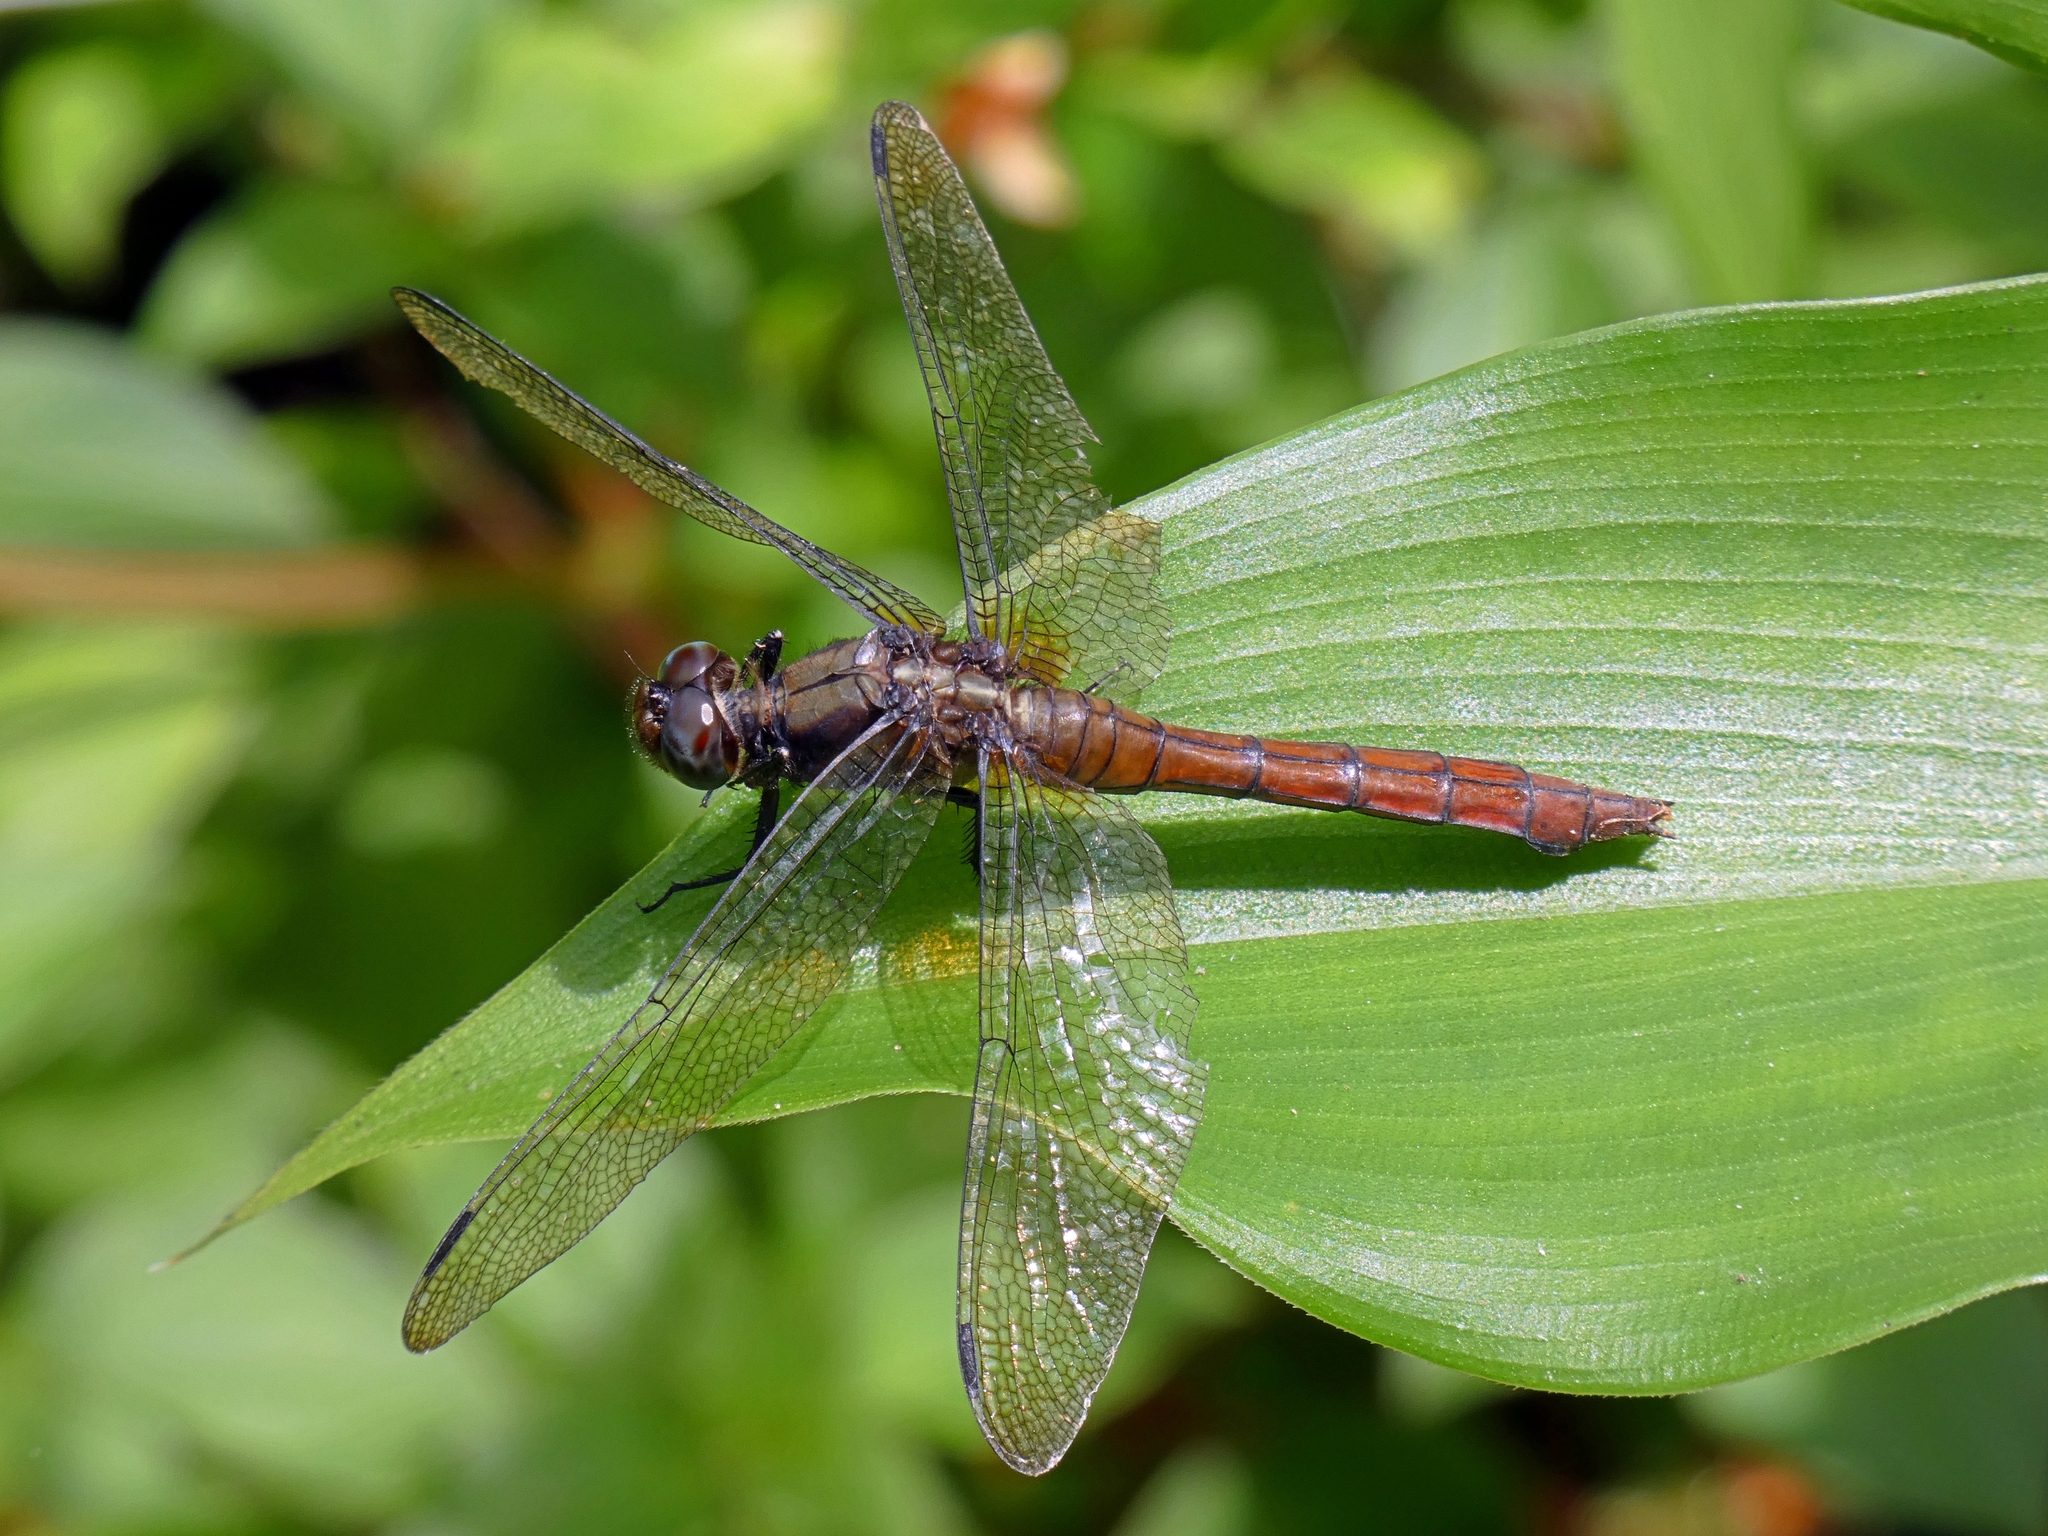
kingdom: Animalia
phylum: Arthropoda
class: Insecta
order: Odonata
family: Libellulidae
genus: Orthetrum
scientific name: Orthetrum villosovittatum
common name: Firery skimmer
